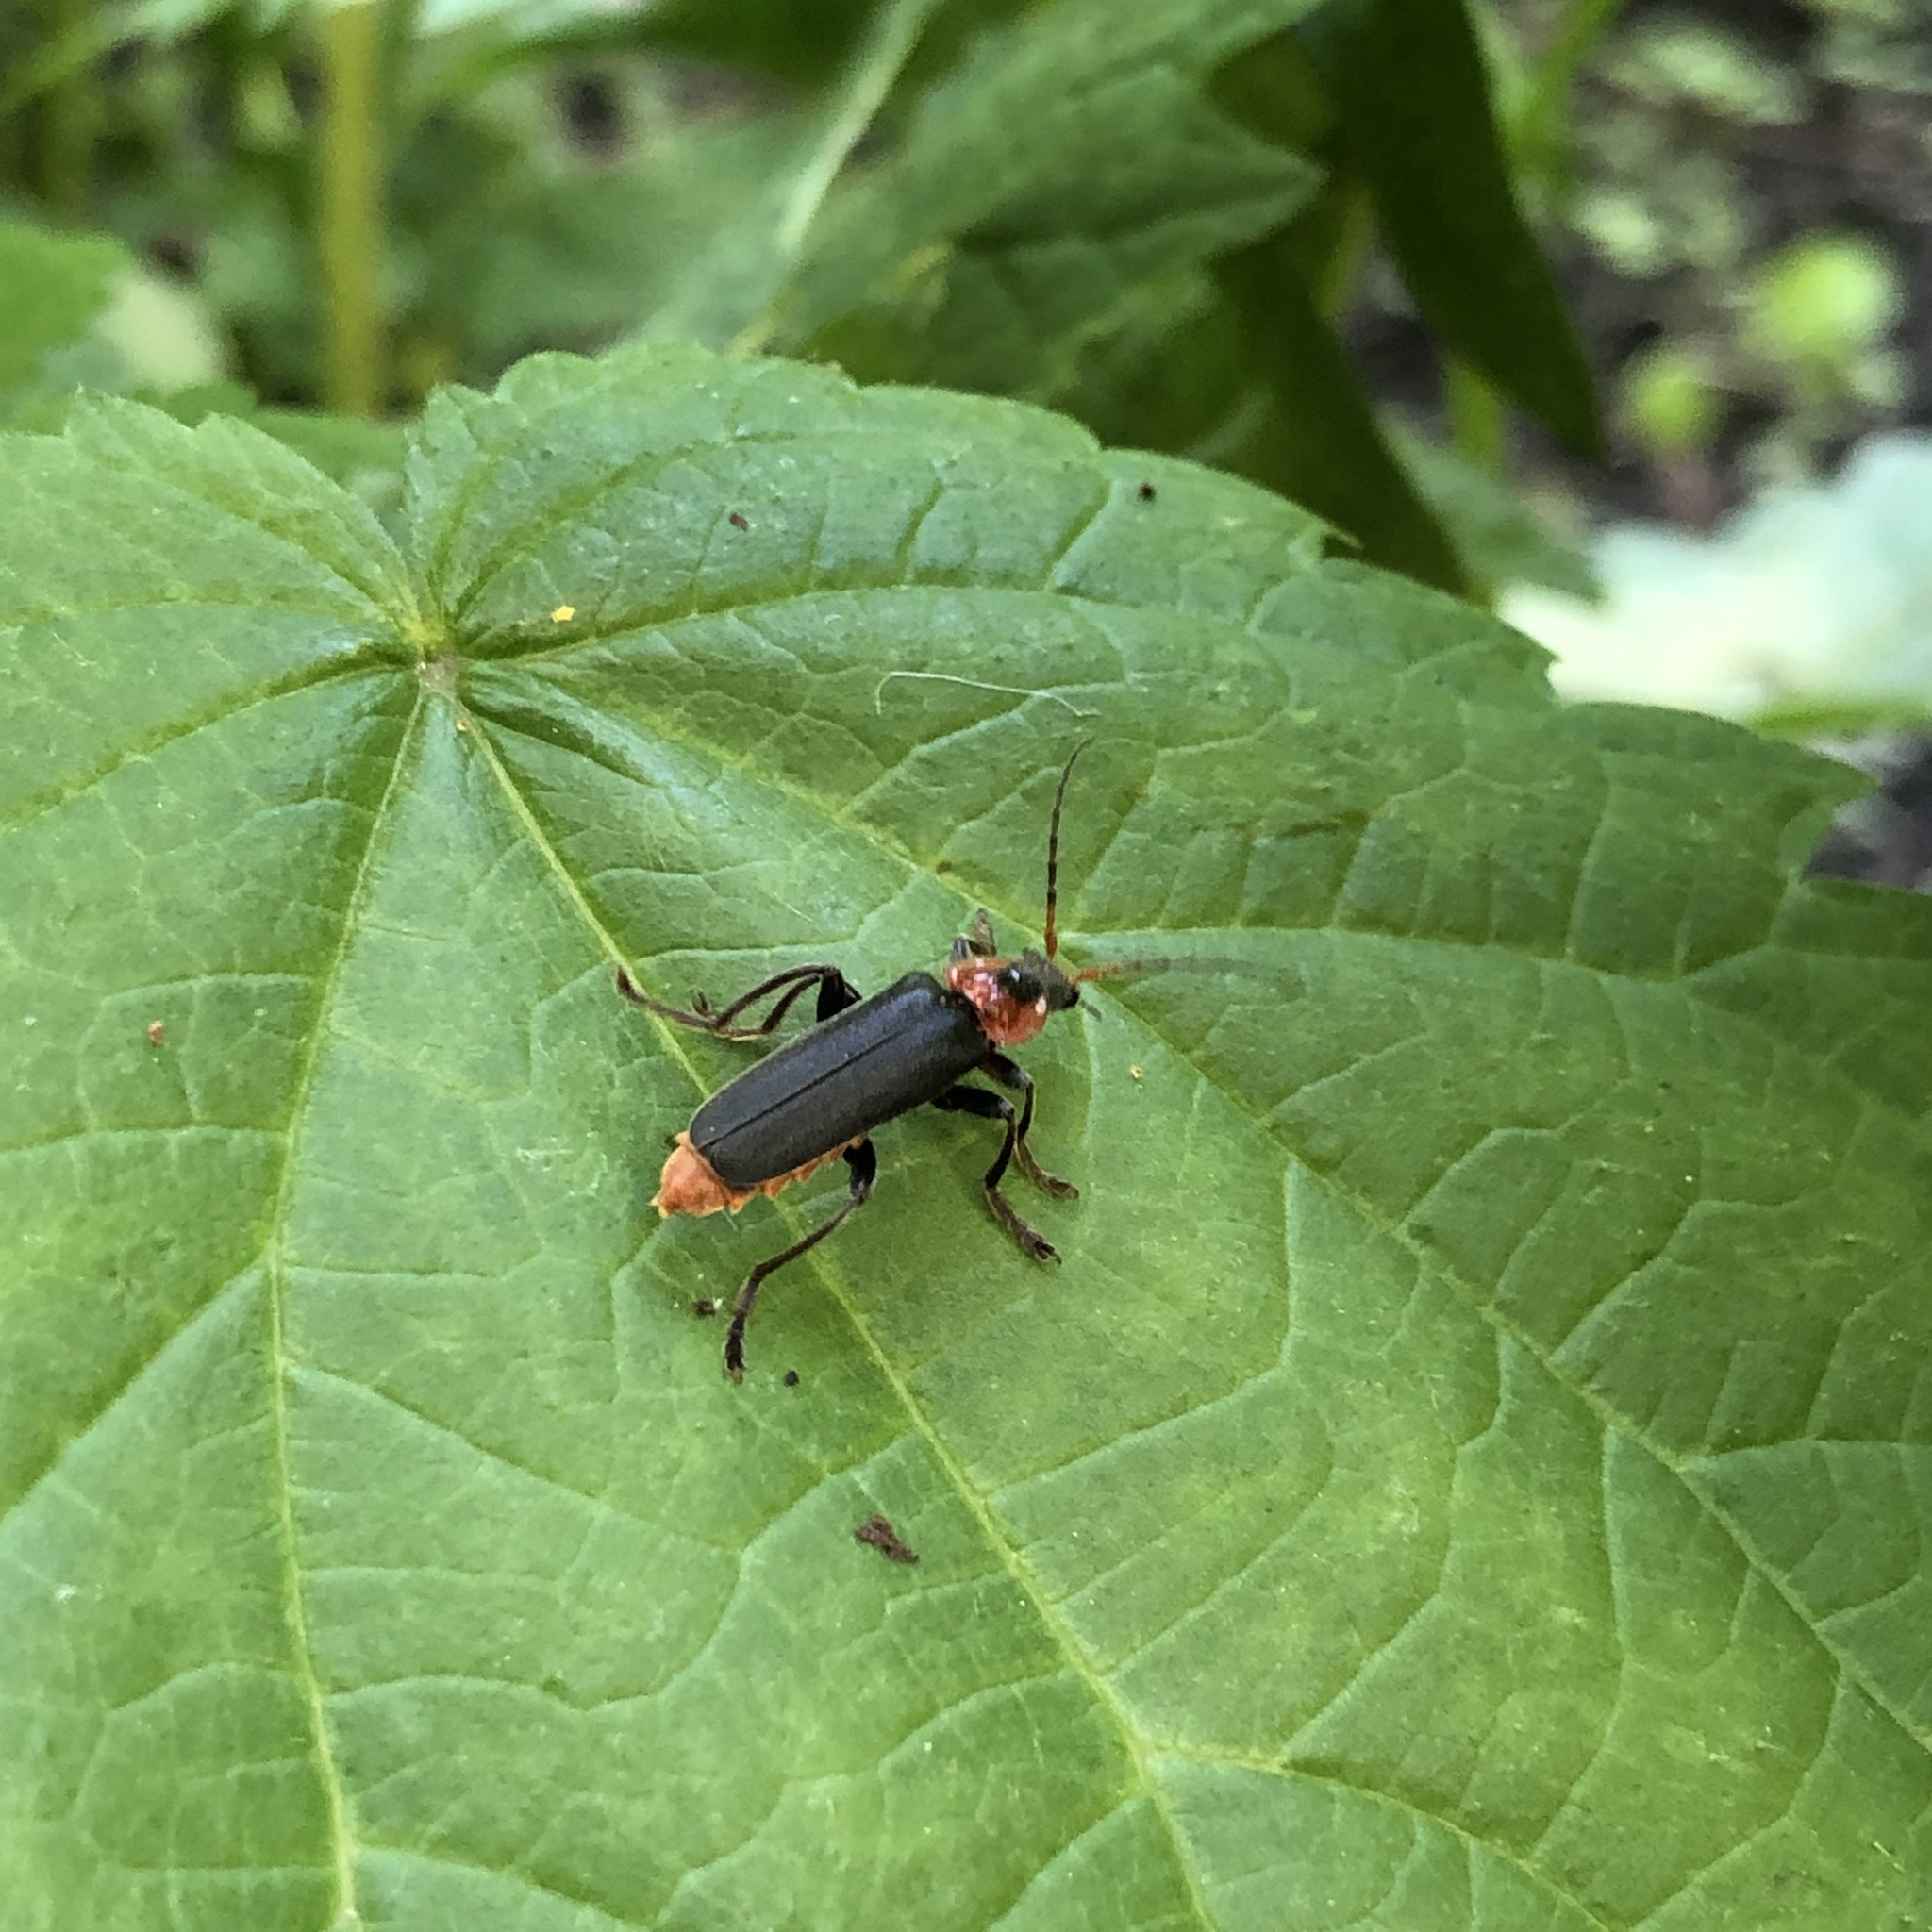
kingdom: Animalia
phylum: Arthropoda
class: Insecta
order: Coleoptera
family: Cantharidae
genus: Cantharis
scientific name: Cantharis fusca
